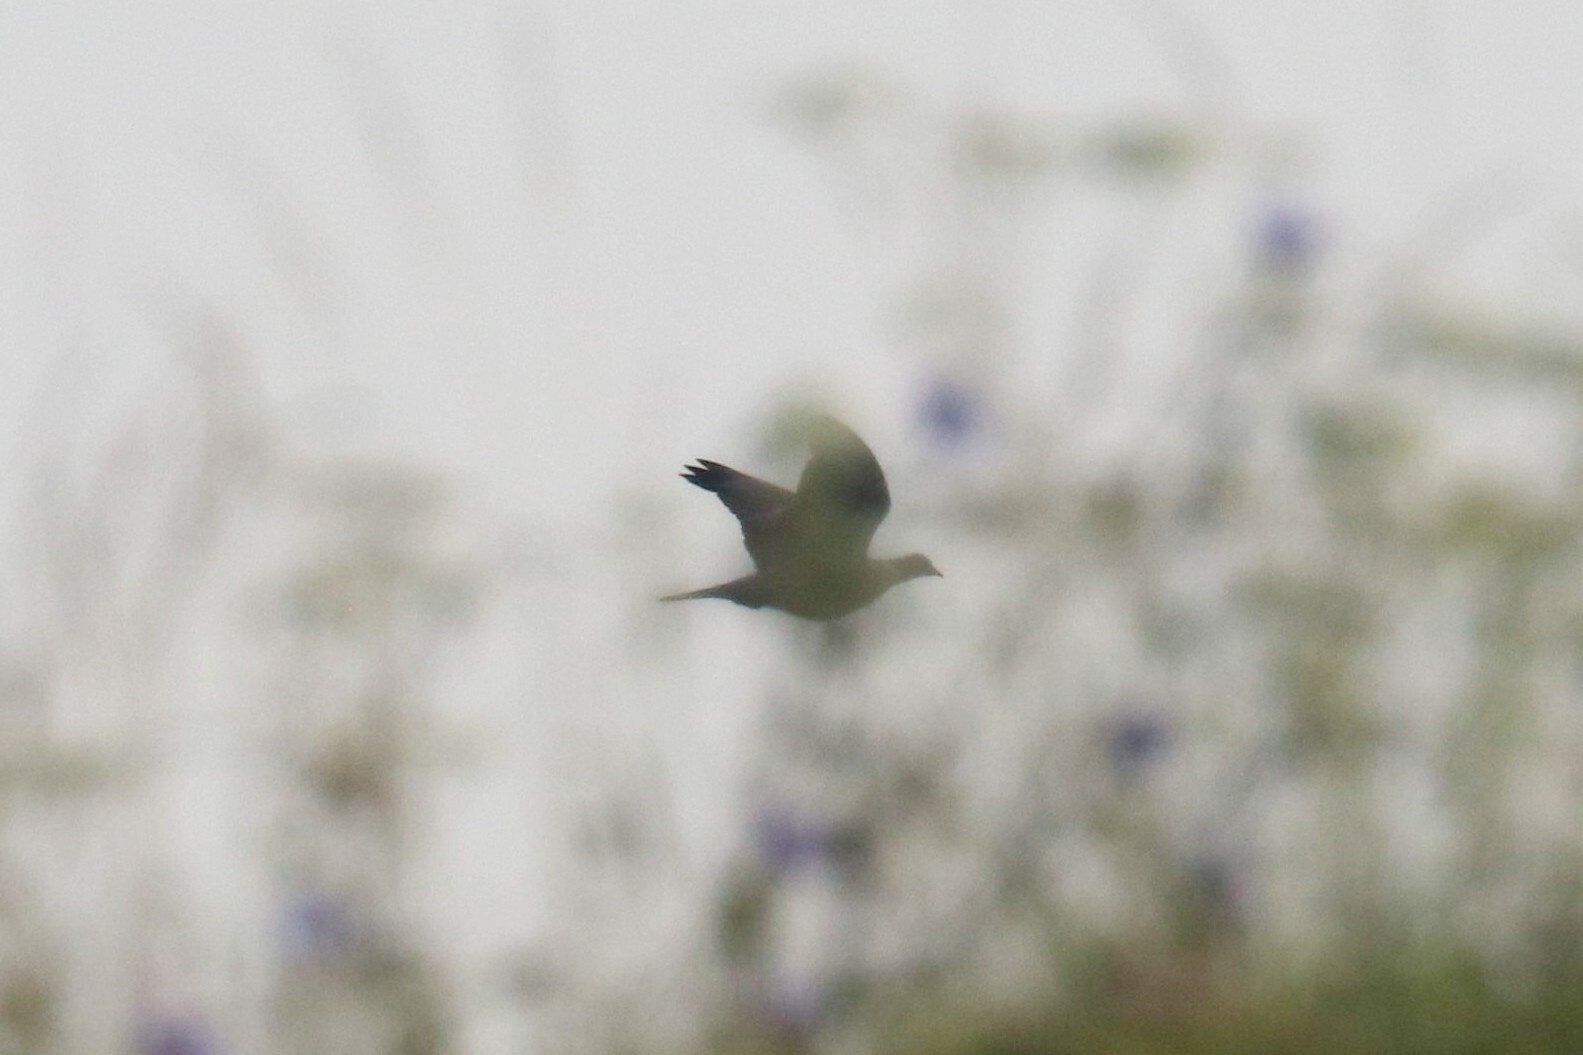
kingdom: Animalia
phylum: Chordata
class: Aves
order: Columbiformes
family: Columbidae
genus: Columba
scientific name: Columba palumbus
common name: Common wood pigeon
